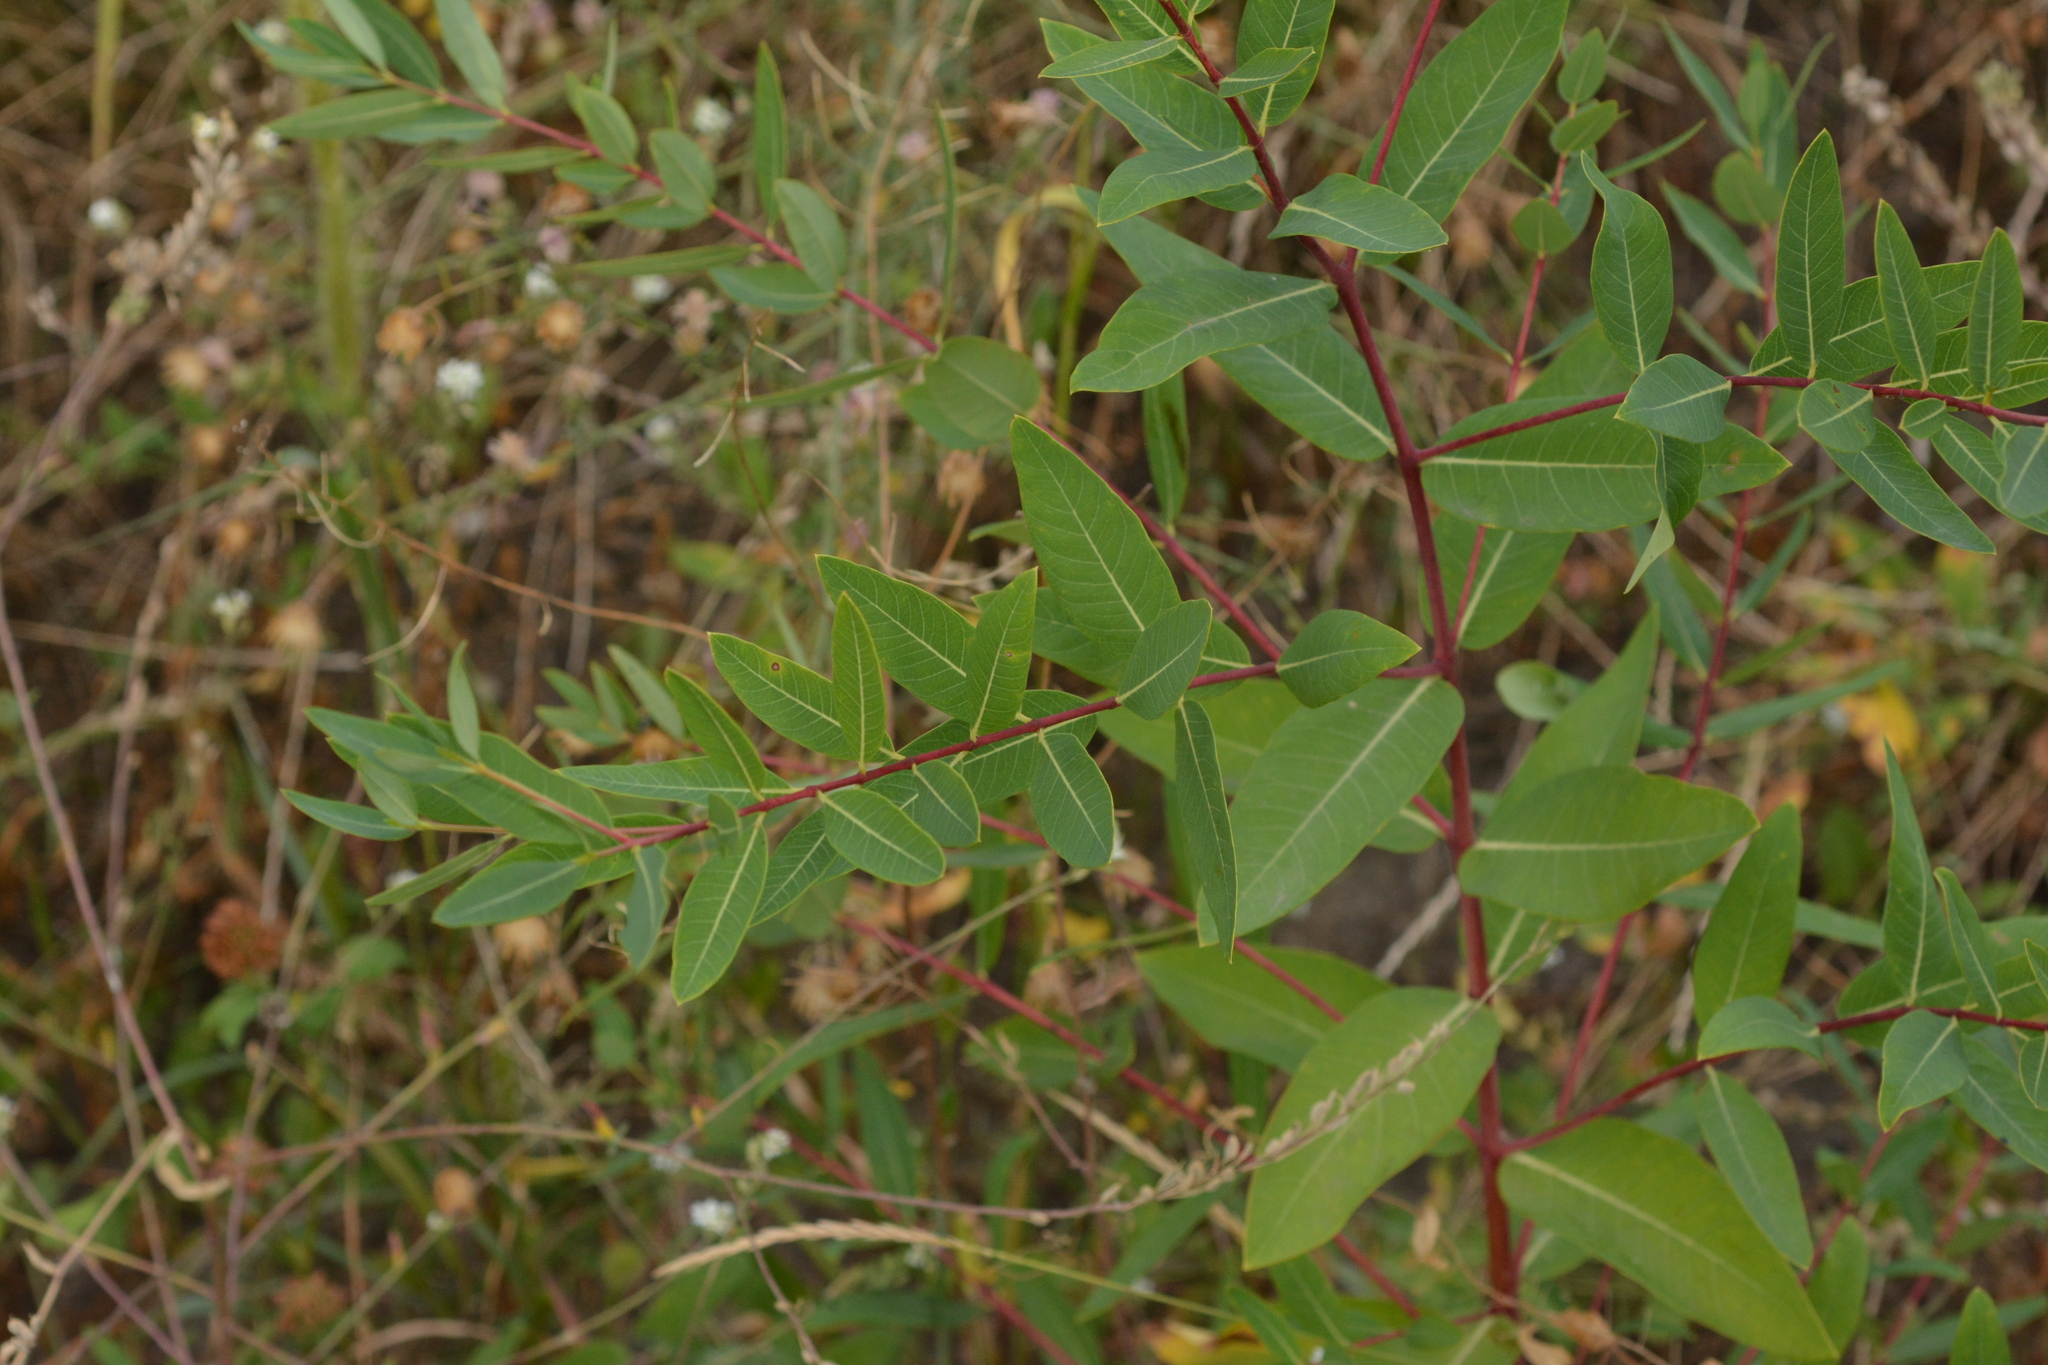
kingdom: Plantae
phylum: Tracheophyta
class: Magnoliopsida
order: Gentianales
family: Apocynaceae
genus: Apocynum
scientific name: Apocynum cannabinum
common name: Hemp dogbane
